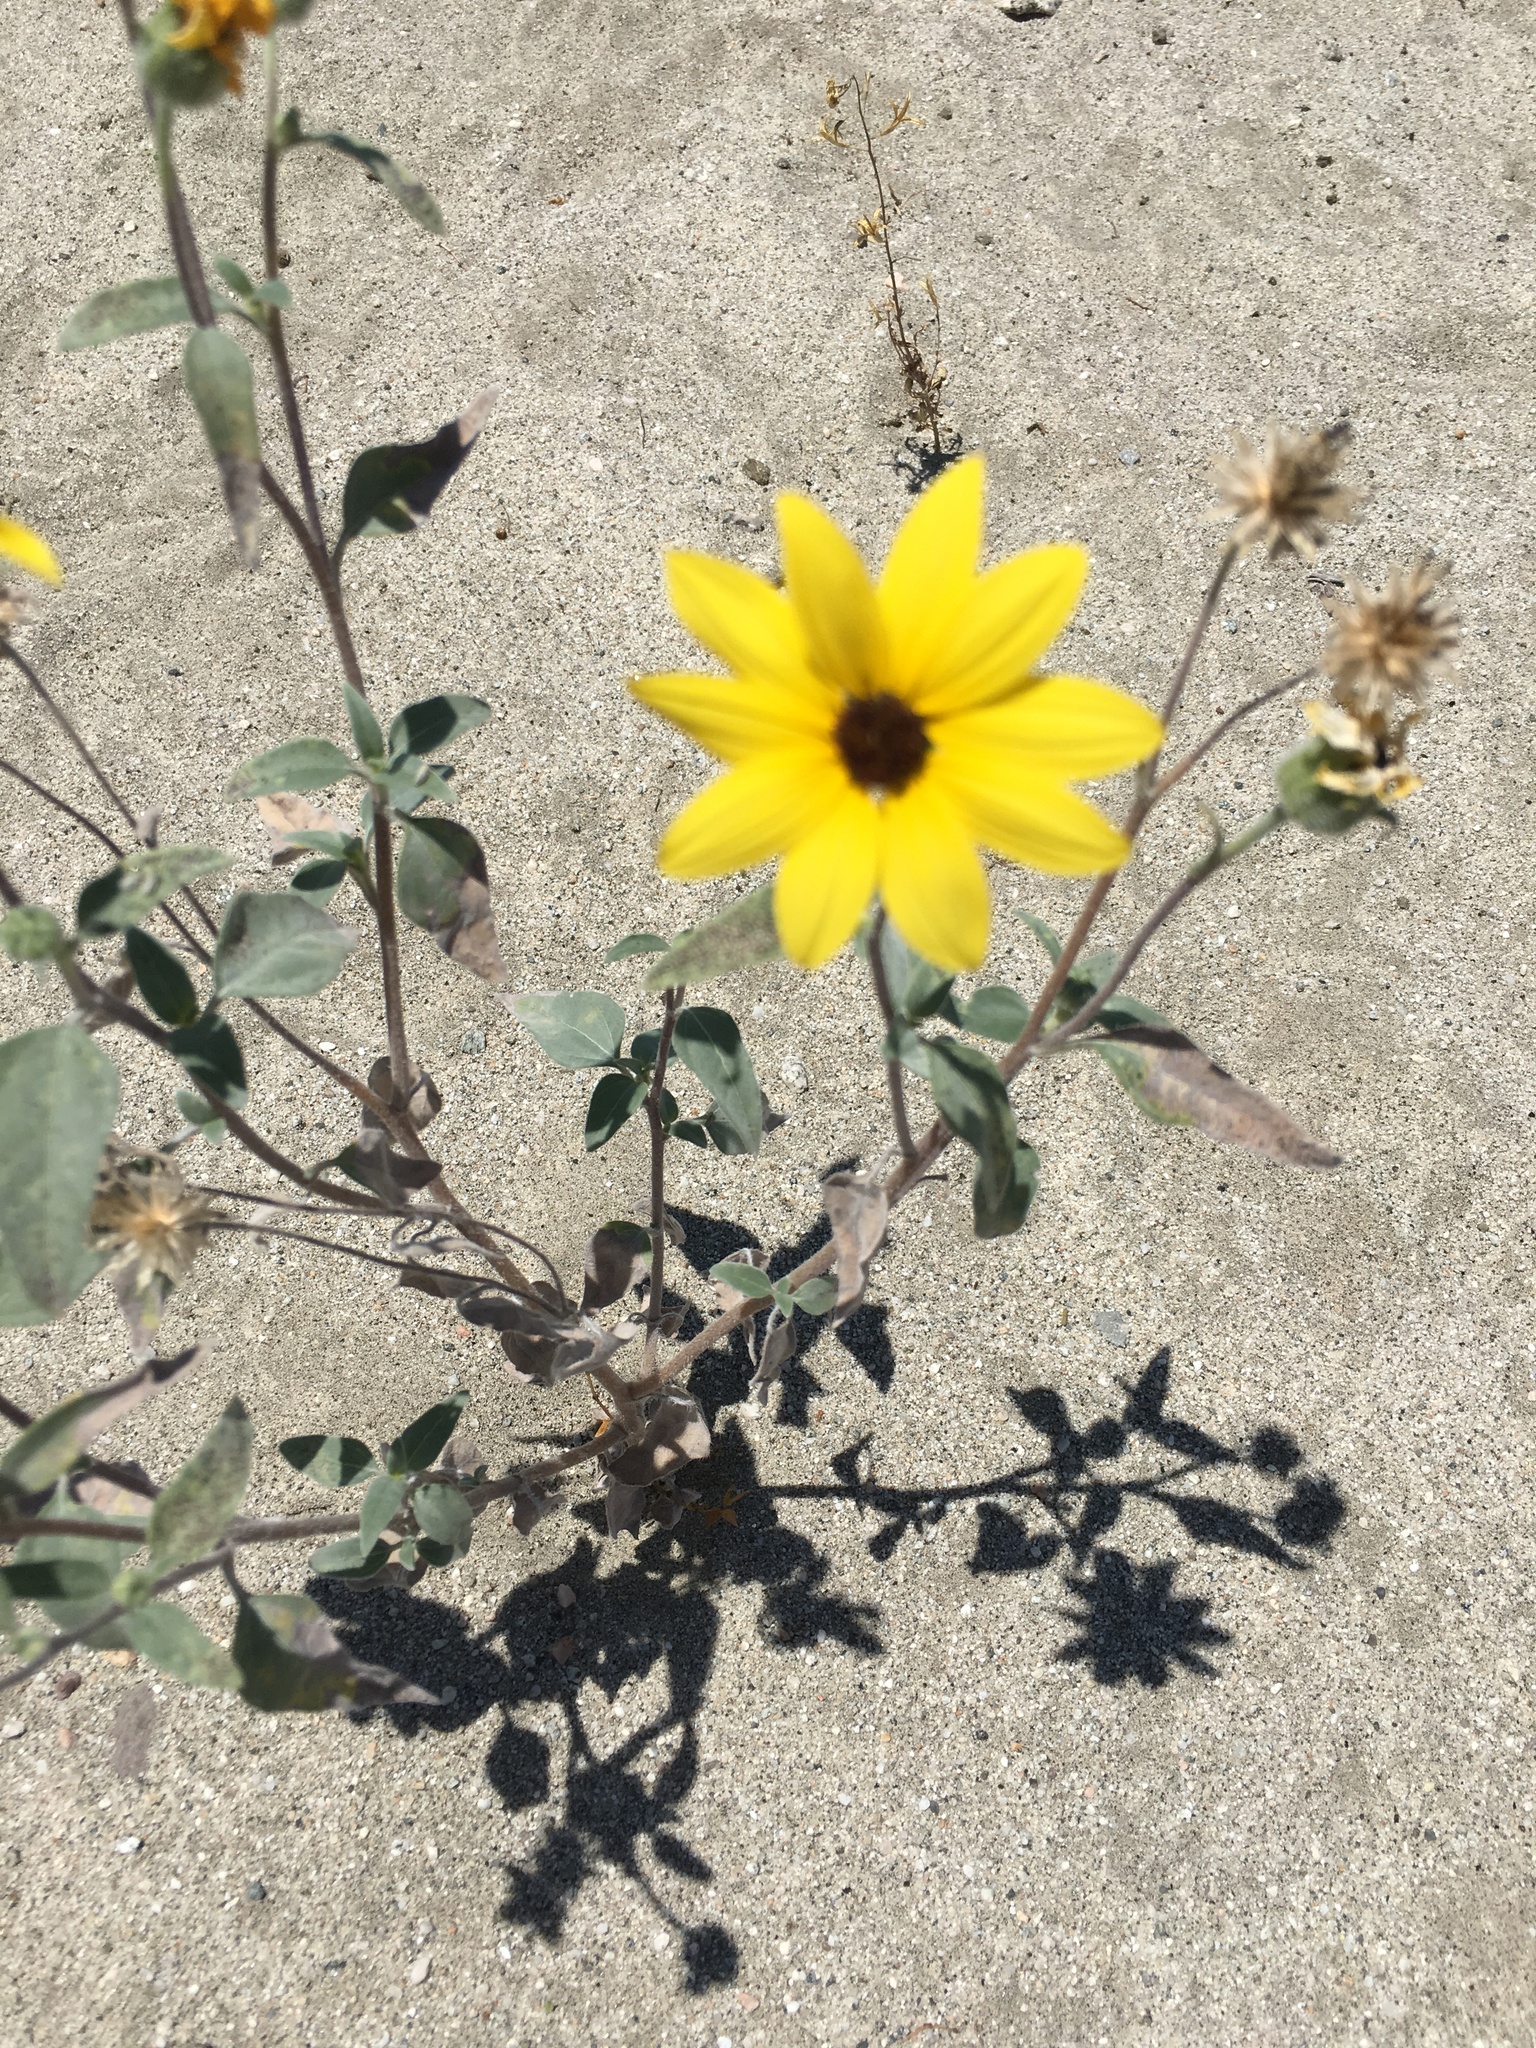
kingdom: Plantae
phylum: Tracheophyta
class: Magnoliopsida
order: Asterales
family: Asteraceae
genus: Helianthus
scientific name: Helianthus petiolaris
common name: Lesser sunflower
